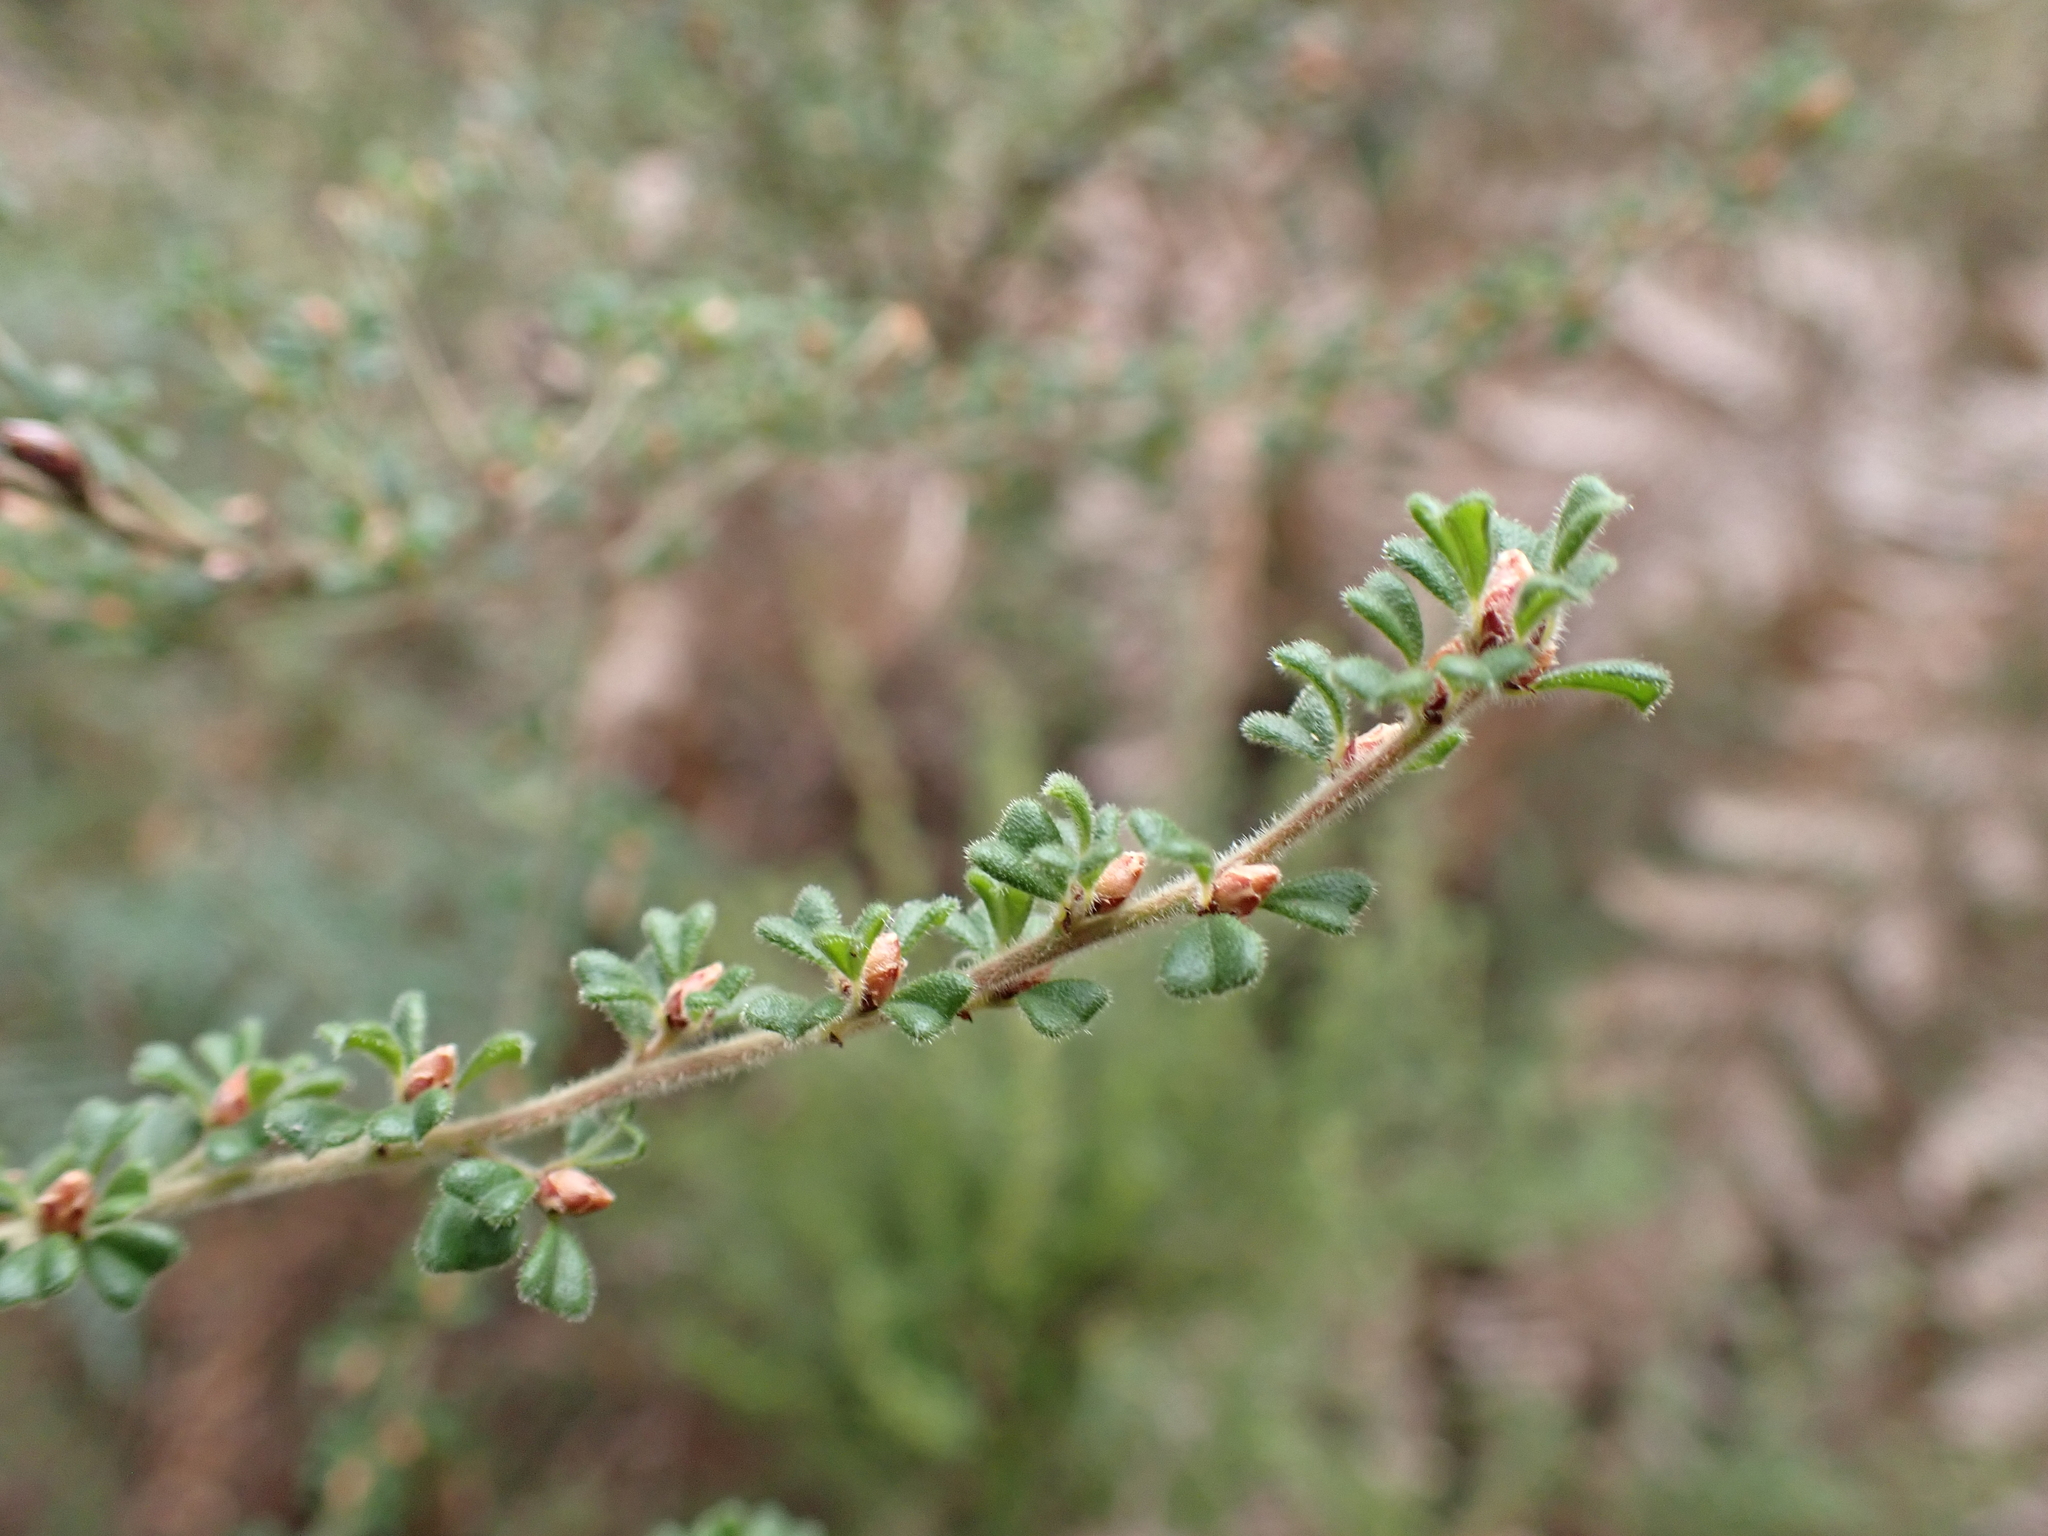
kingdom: Plantae
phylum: Tracheophyta
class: Magnoliopsida
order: Fabales
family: Fabaceae
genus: Pultenaea
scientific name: Pultenaea scabra
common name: Rough bush-pea
